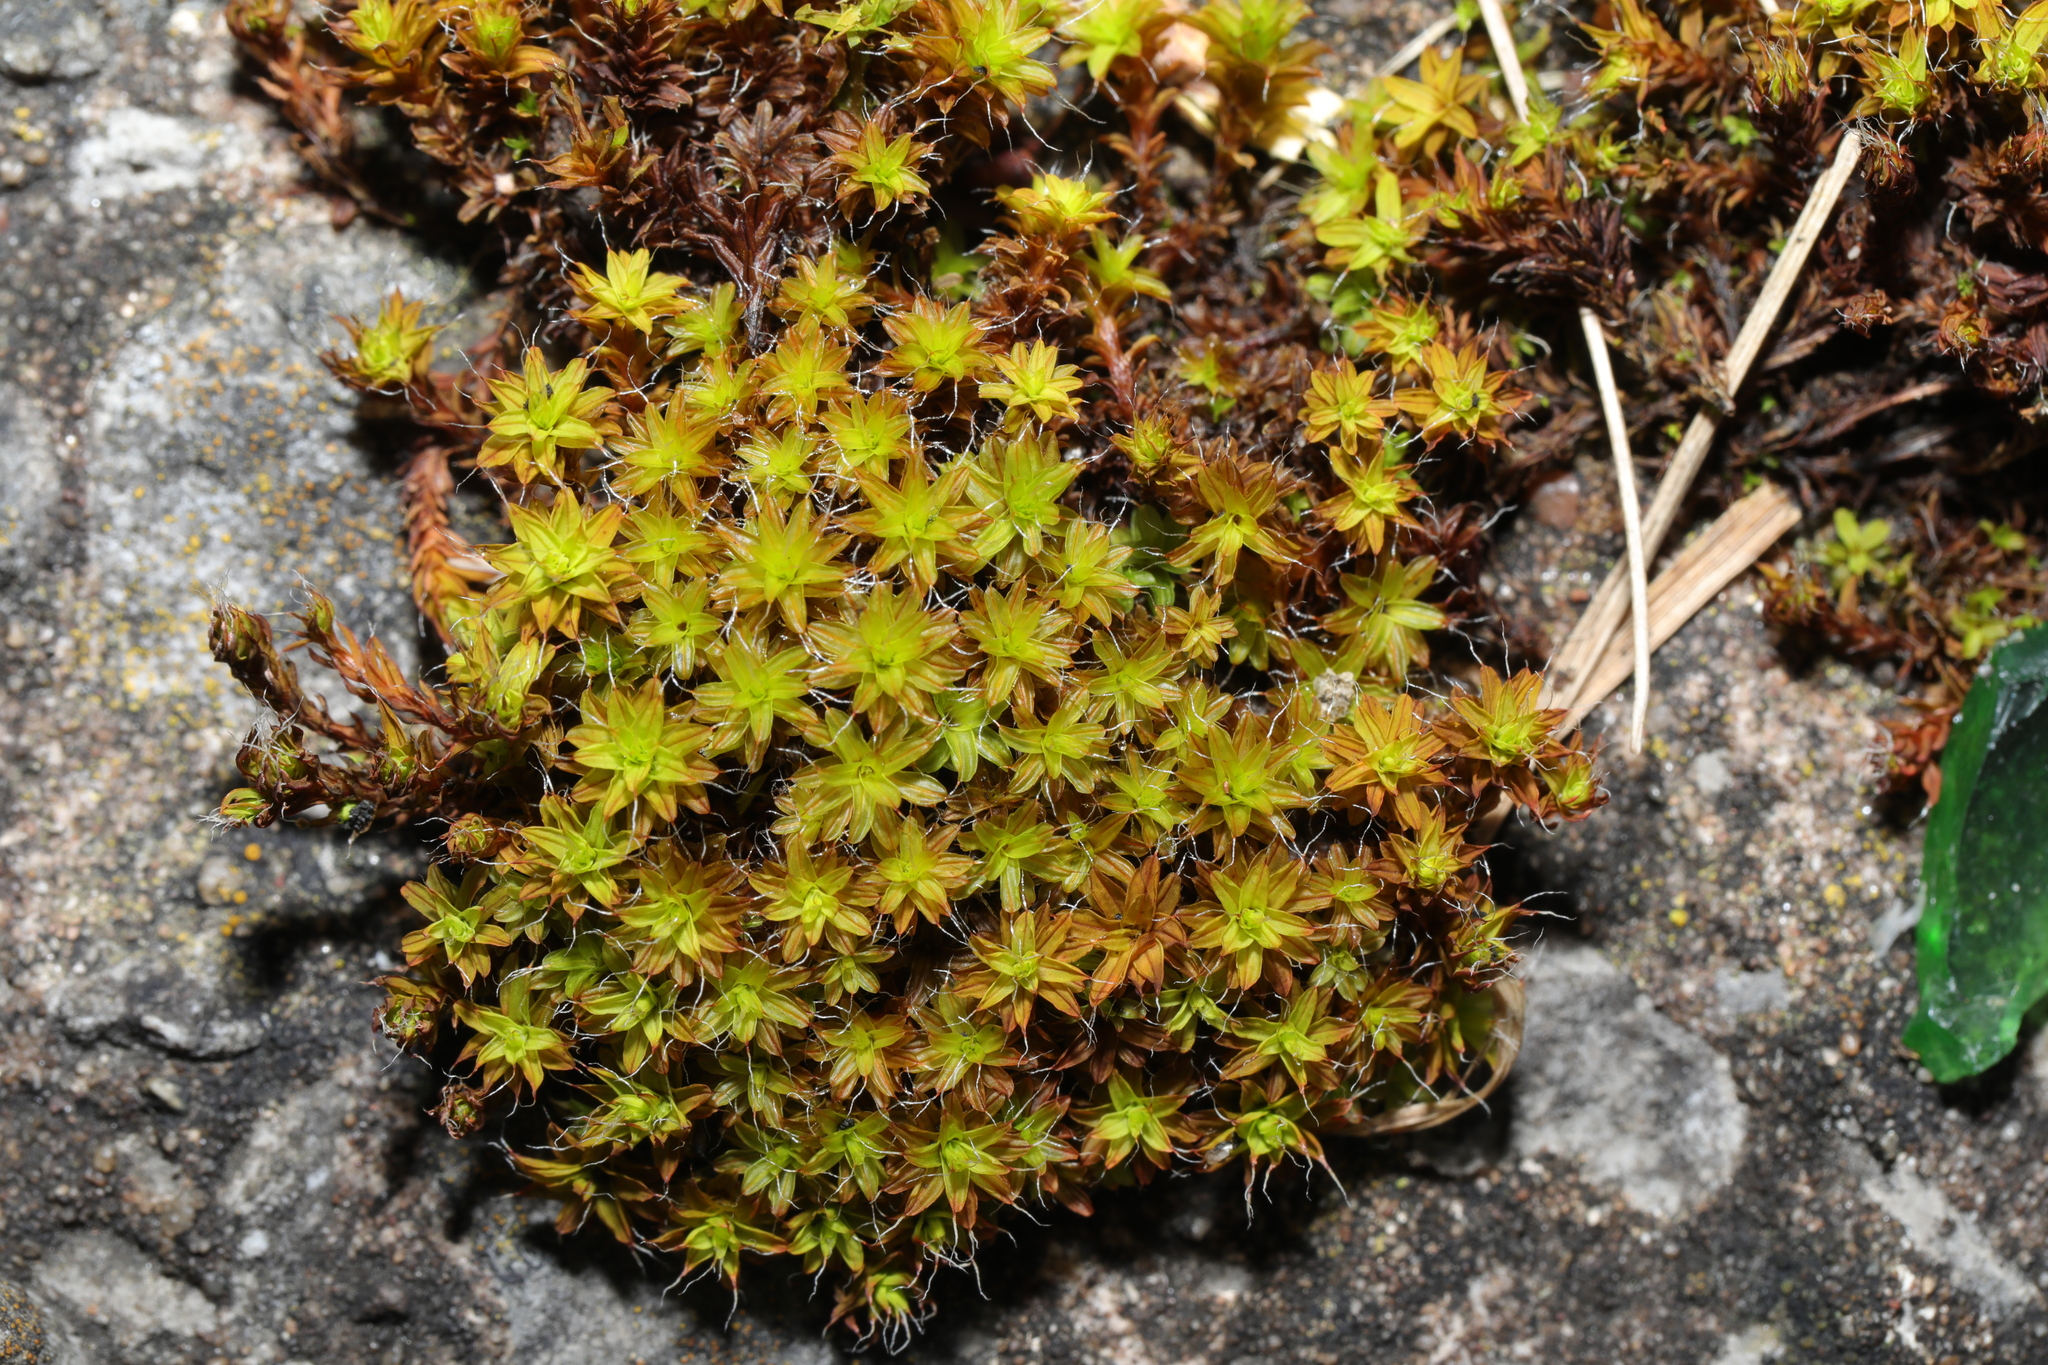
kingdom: Plantae
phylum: Bryophyta
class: Bryopsida
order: Pottiales
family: Pottiaceae
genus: Syntrichia
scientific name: Syntrichia ruralis
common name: Sidewalk screw moss
